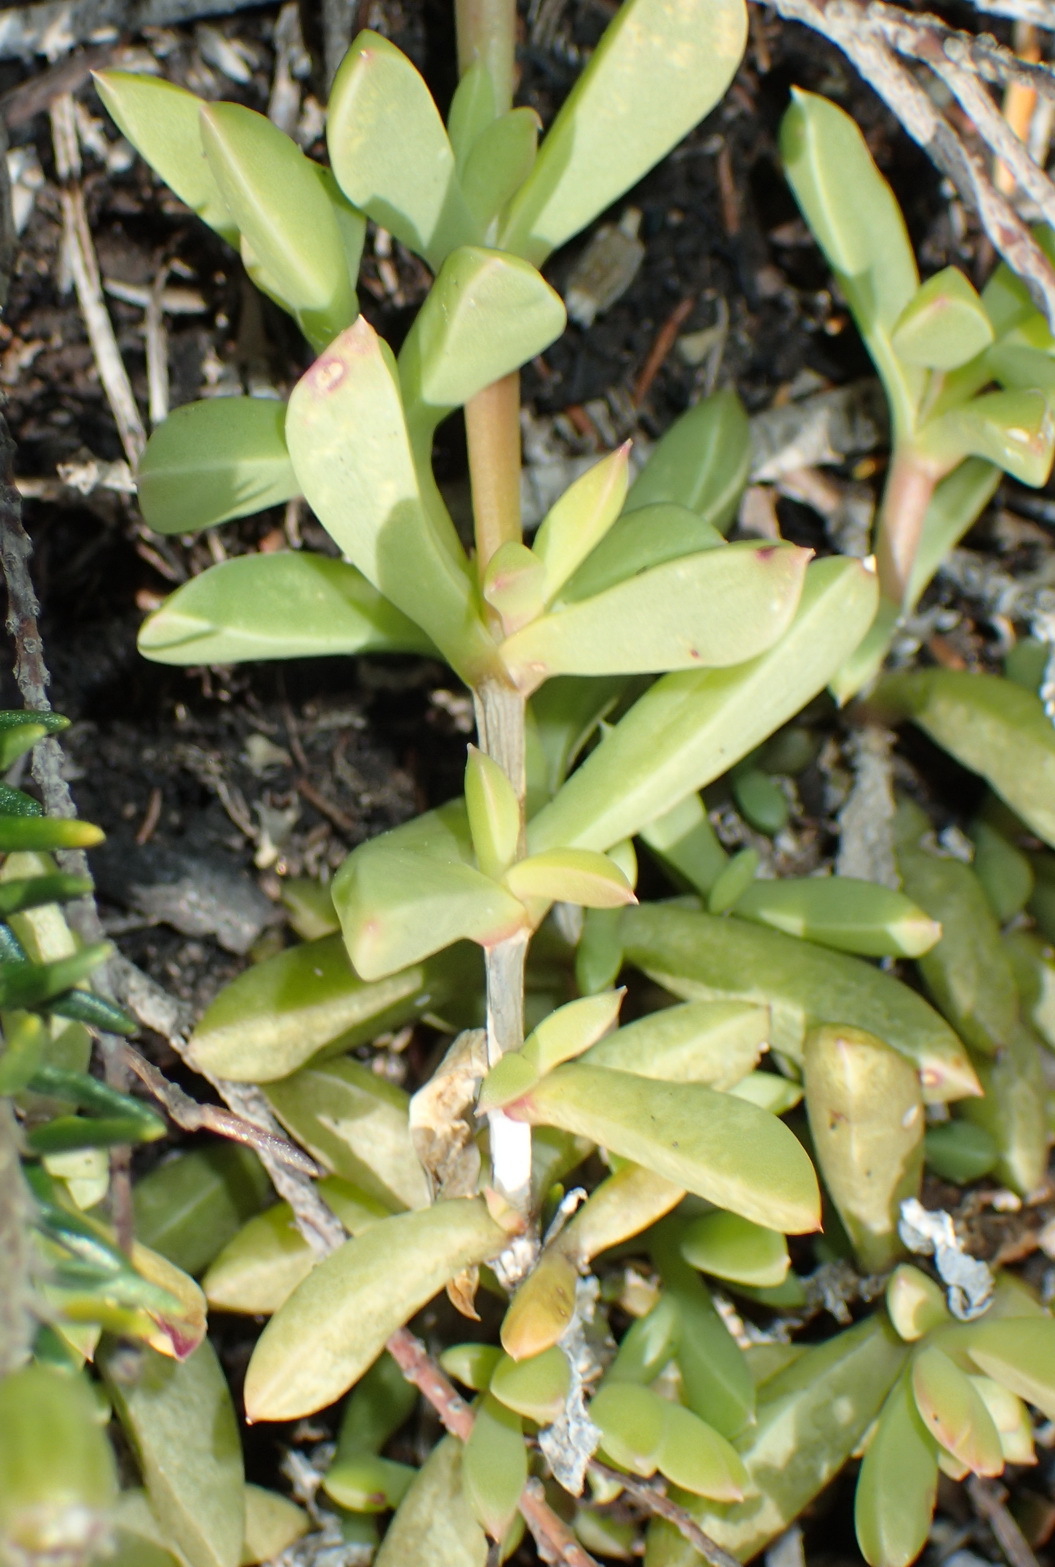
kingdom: Plantae
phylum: Tracheophyta
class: Magnoliopsida
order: Caryophyllales
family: Aizoaceae
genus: Delosperma
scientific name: Delosperma litorale
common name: Seaside delosperma
